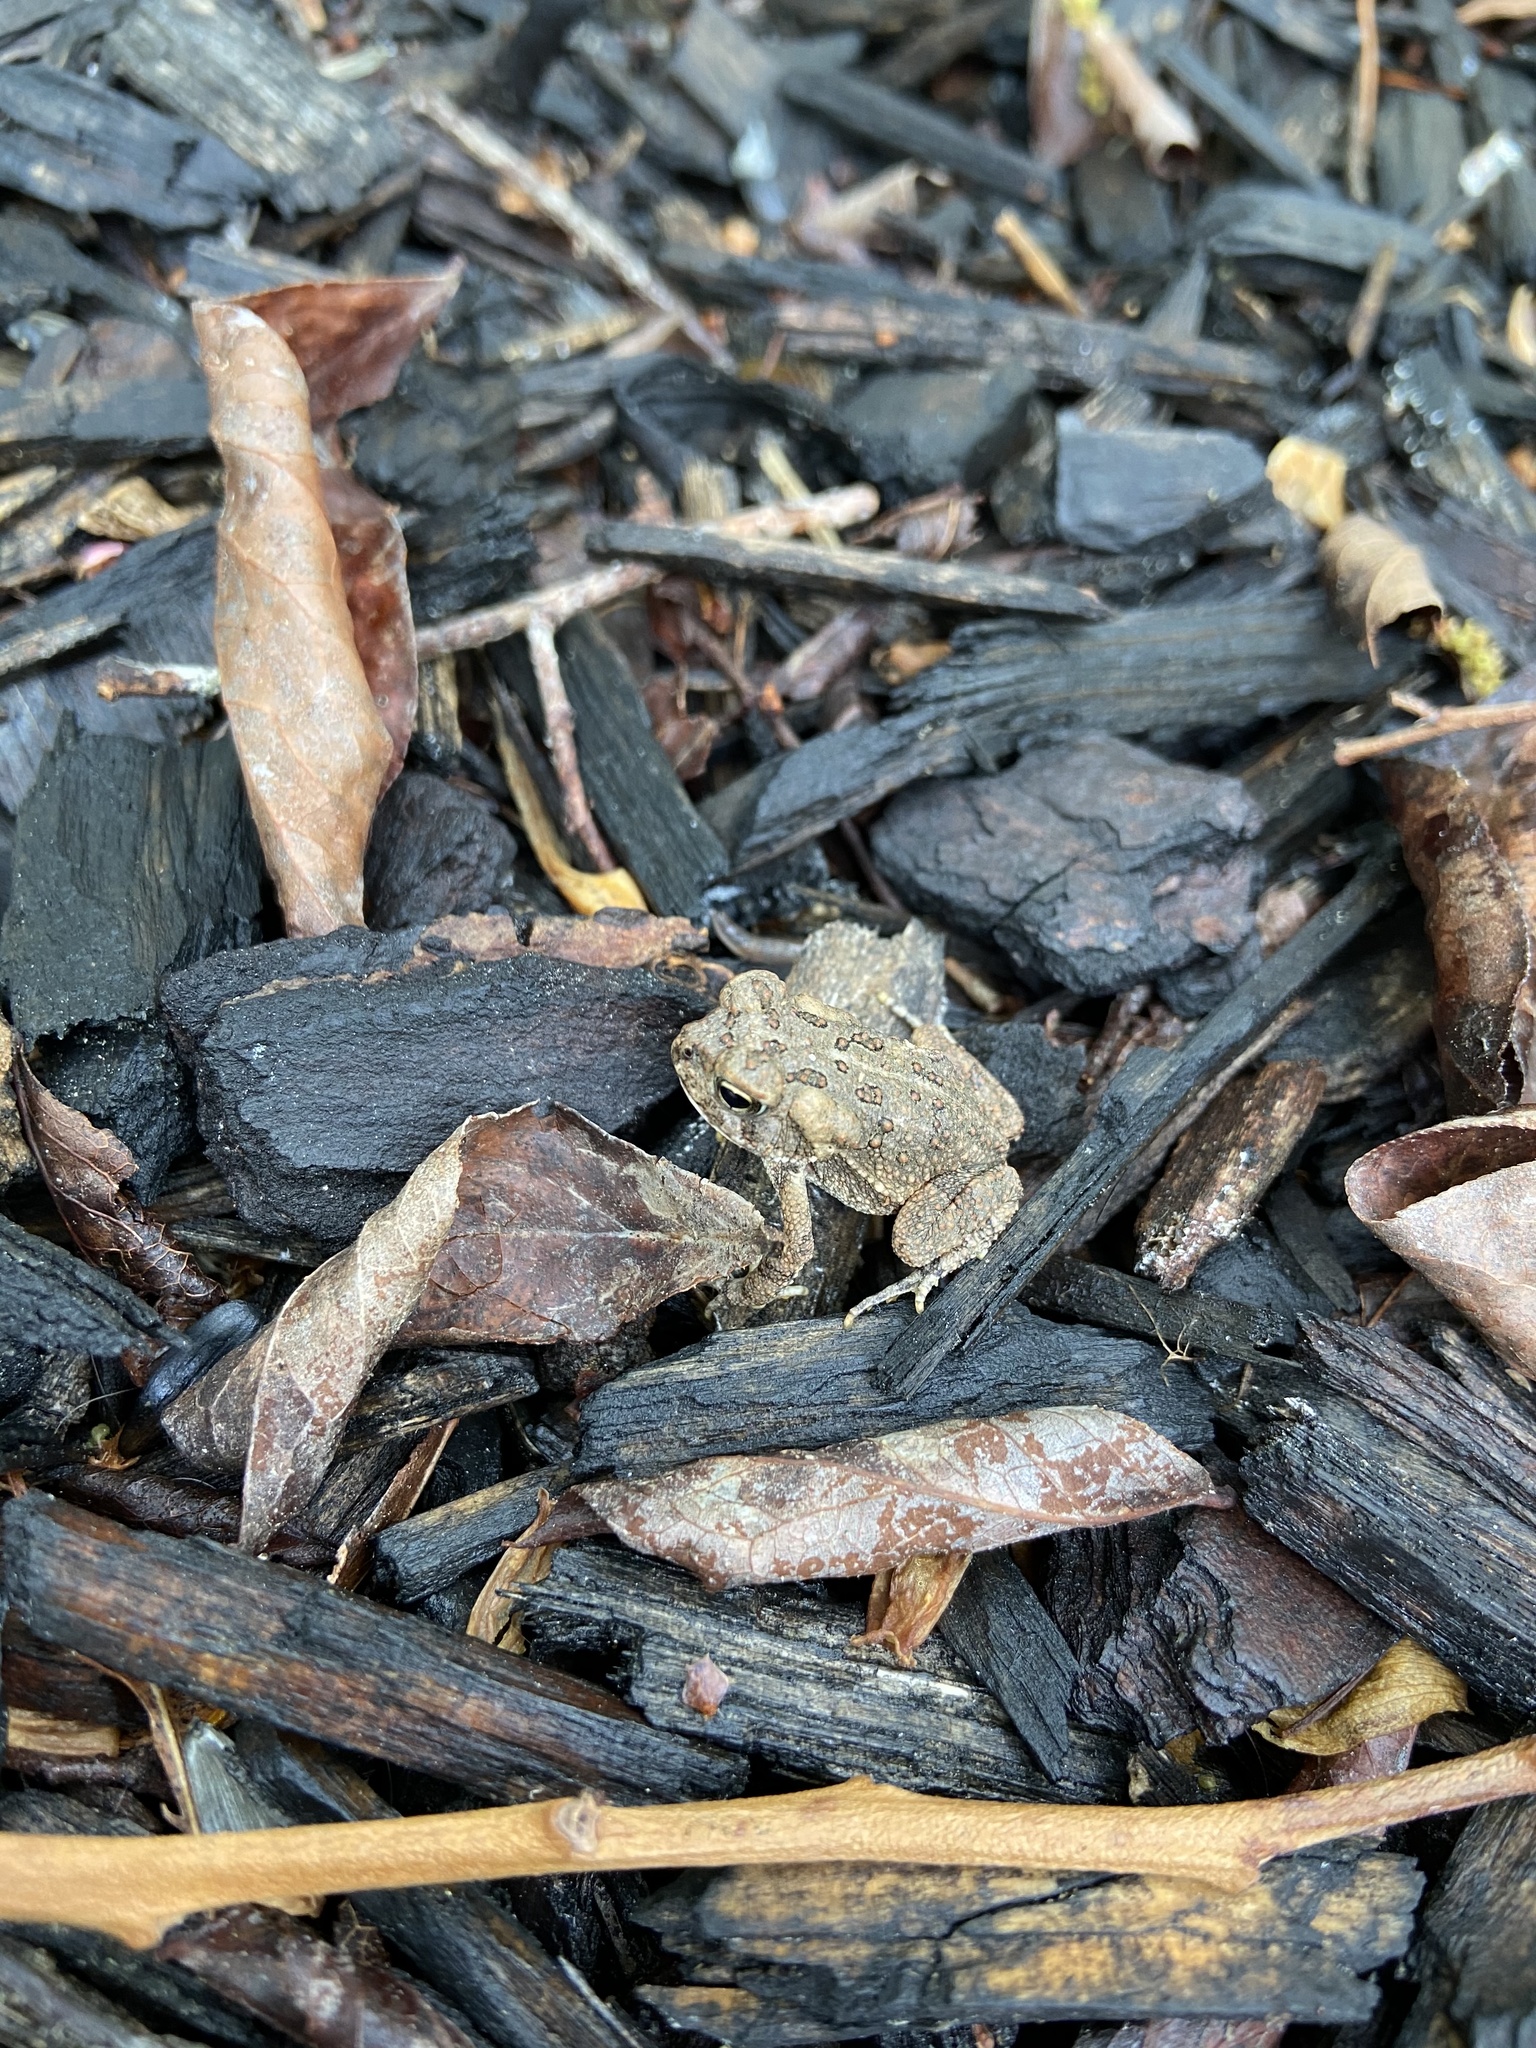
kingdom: Animalia
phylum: Chordata
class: Amphibia
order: Anura
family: Bufonidae
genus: Anaxyrus
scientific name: Anaxyrus fowleri
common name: Fowler's toad
